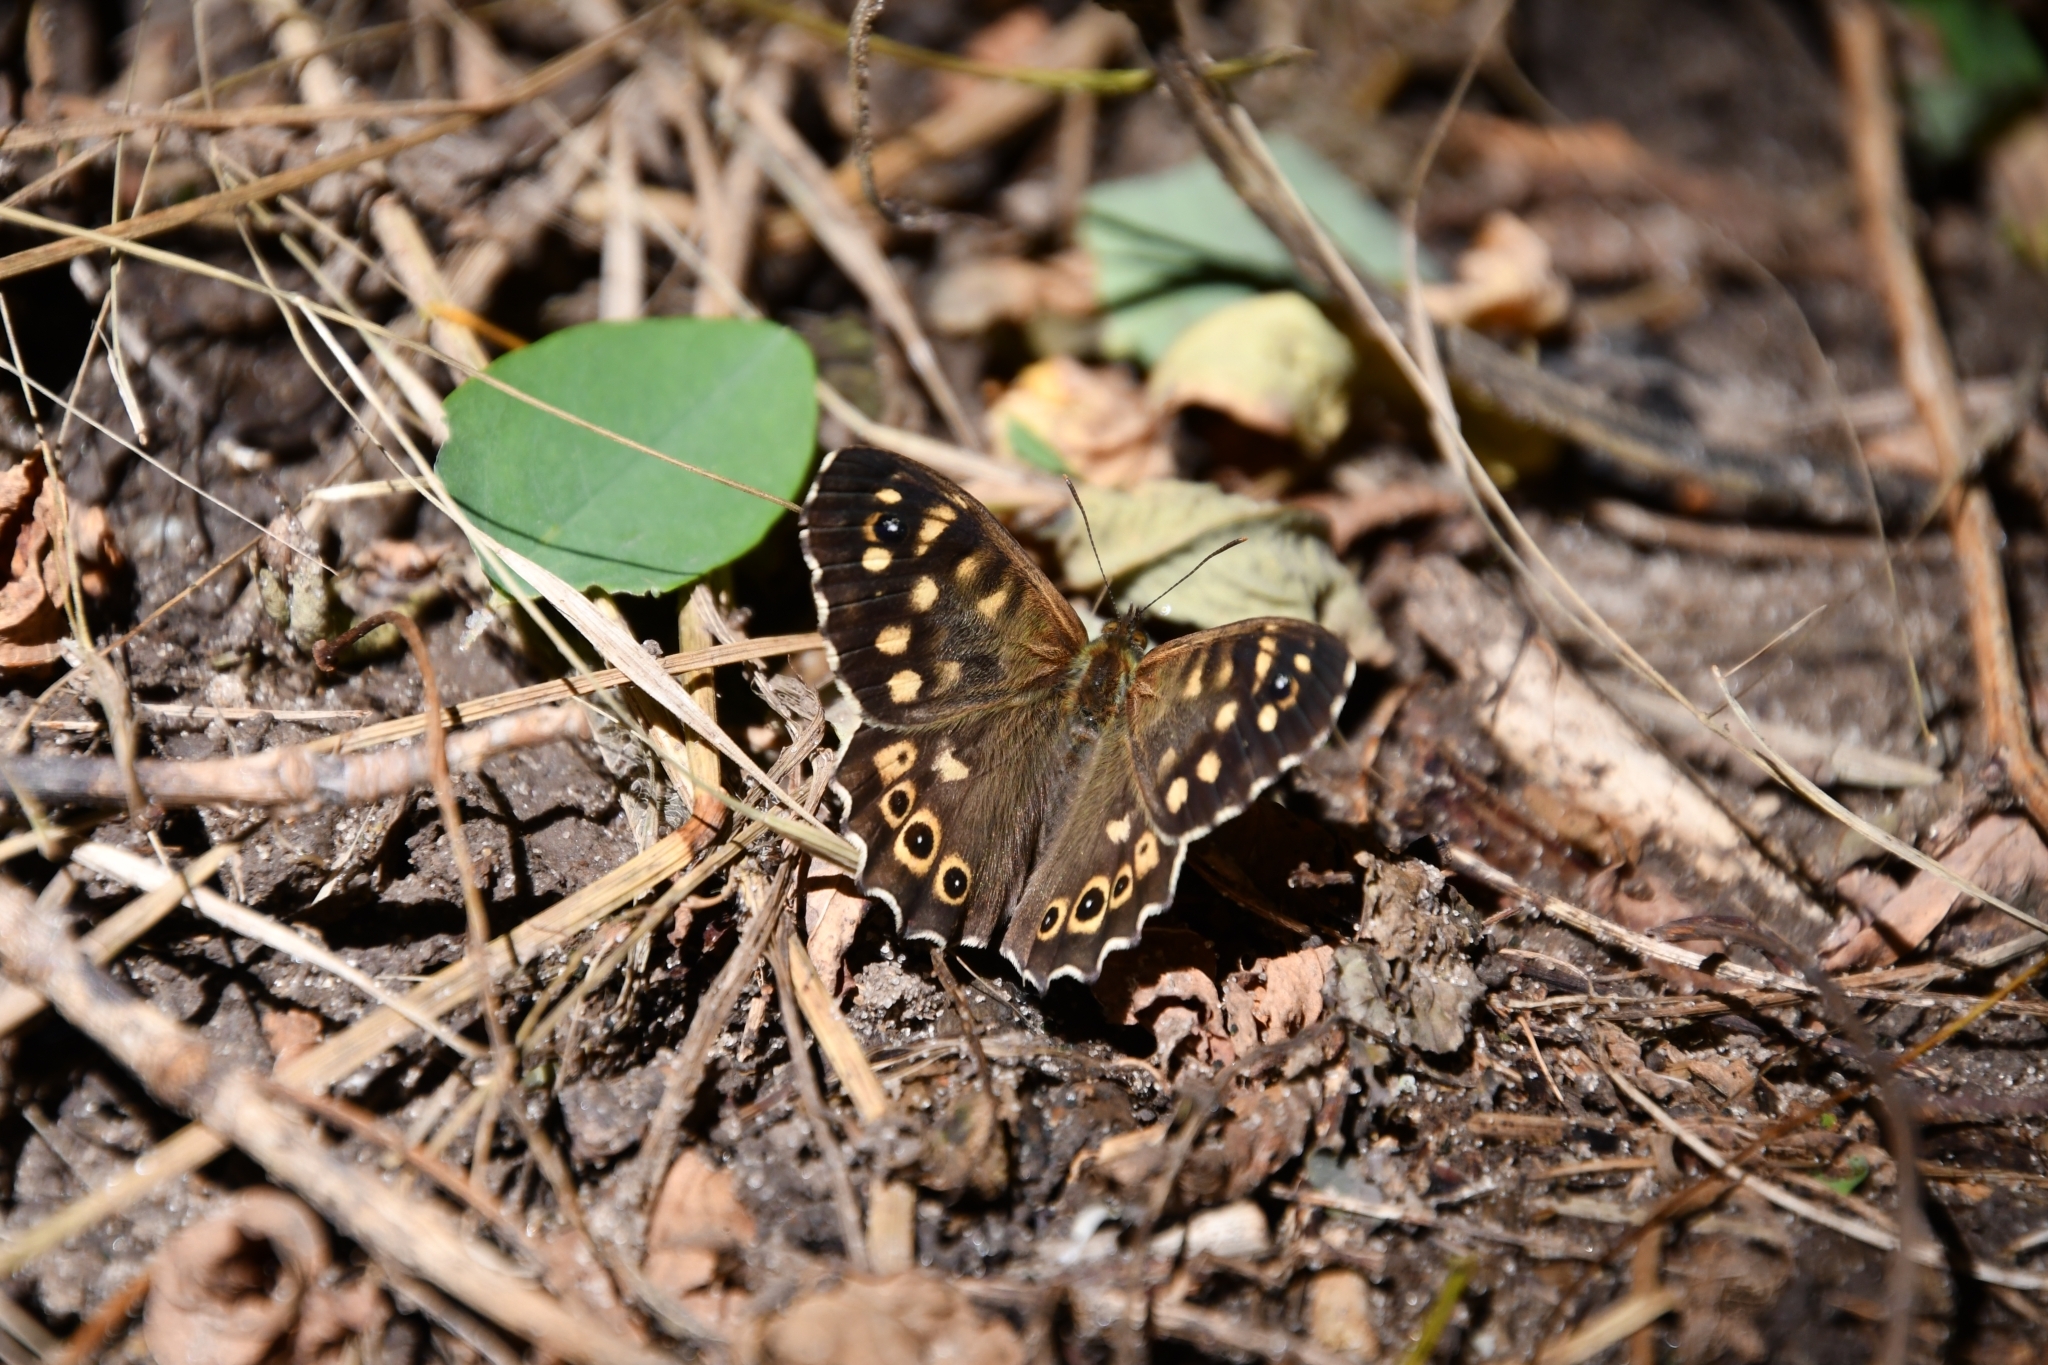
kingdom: Animalia
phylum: Arthropoda
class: Insecta
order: Lepidoptera
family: Nymphalidae
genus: Pararge
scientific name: Pararge aegeria
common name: Speckled wood
